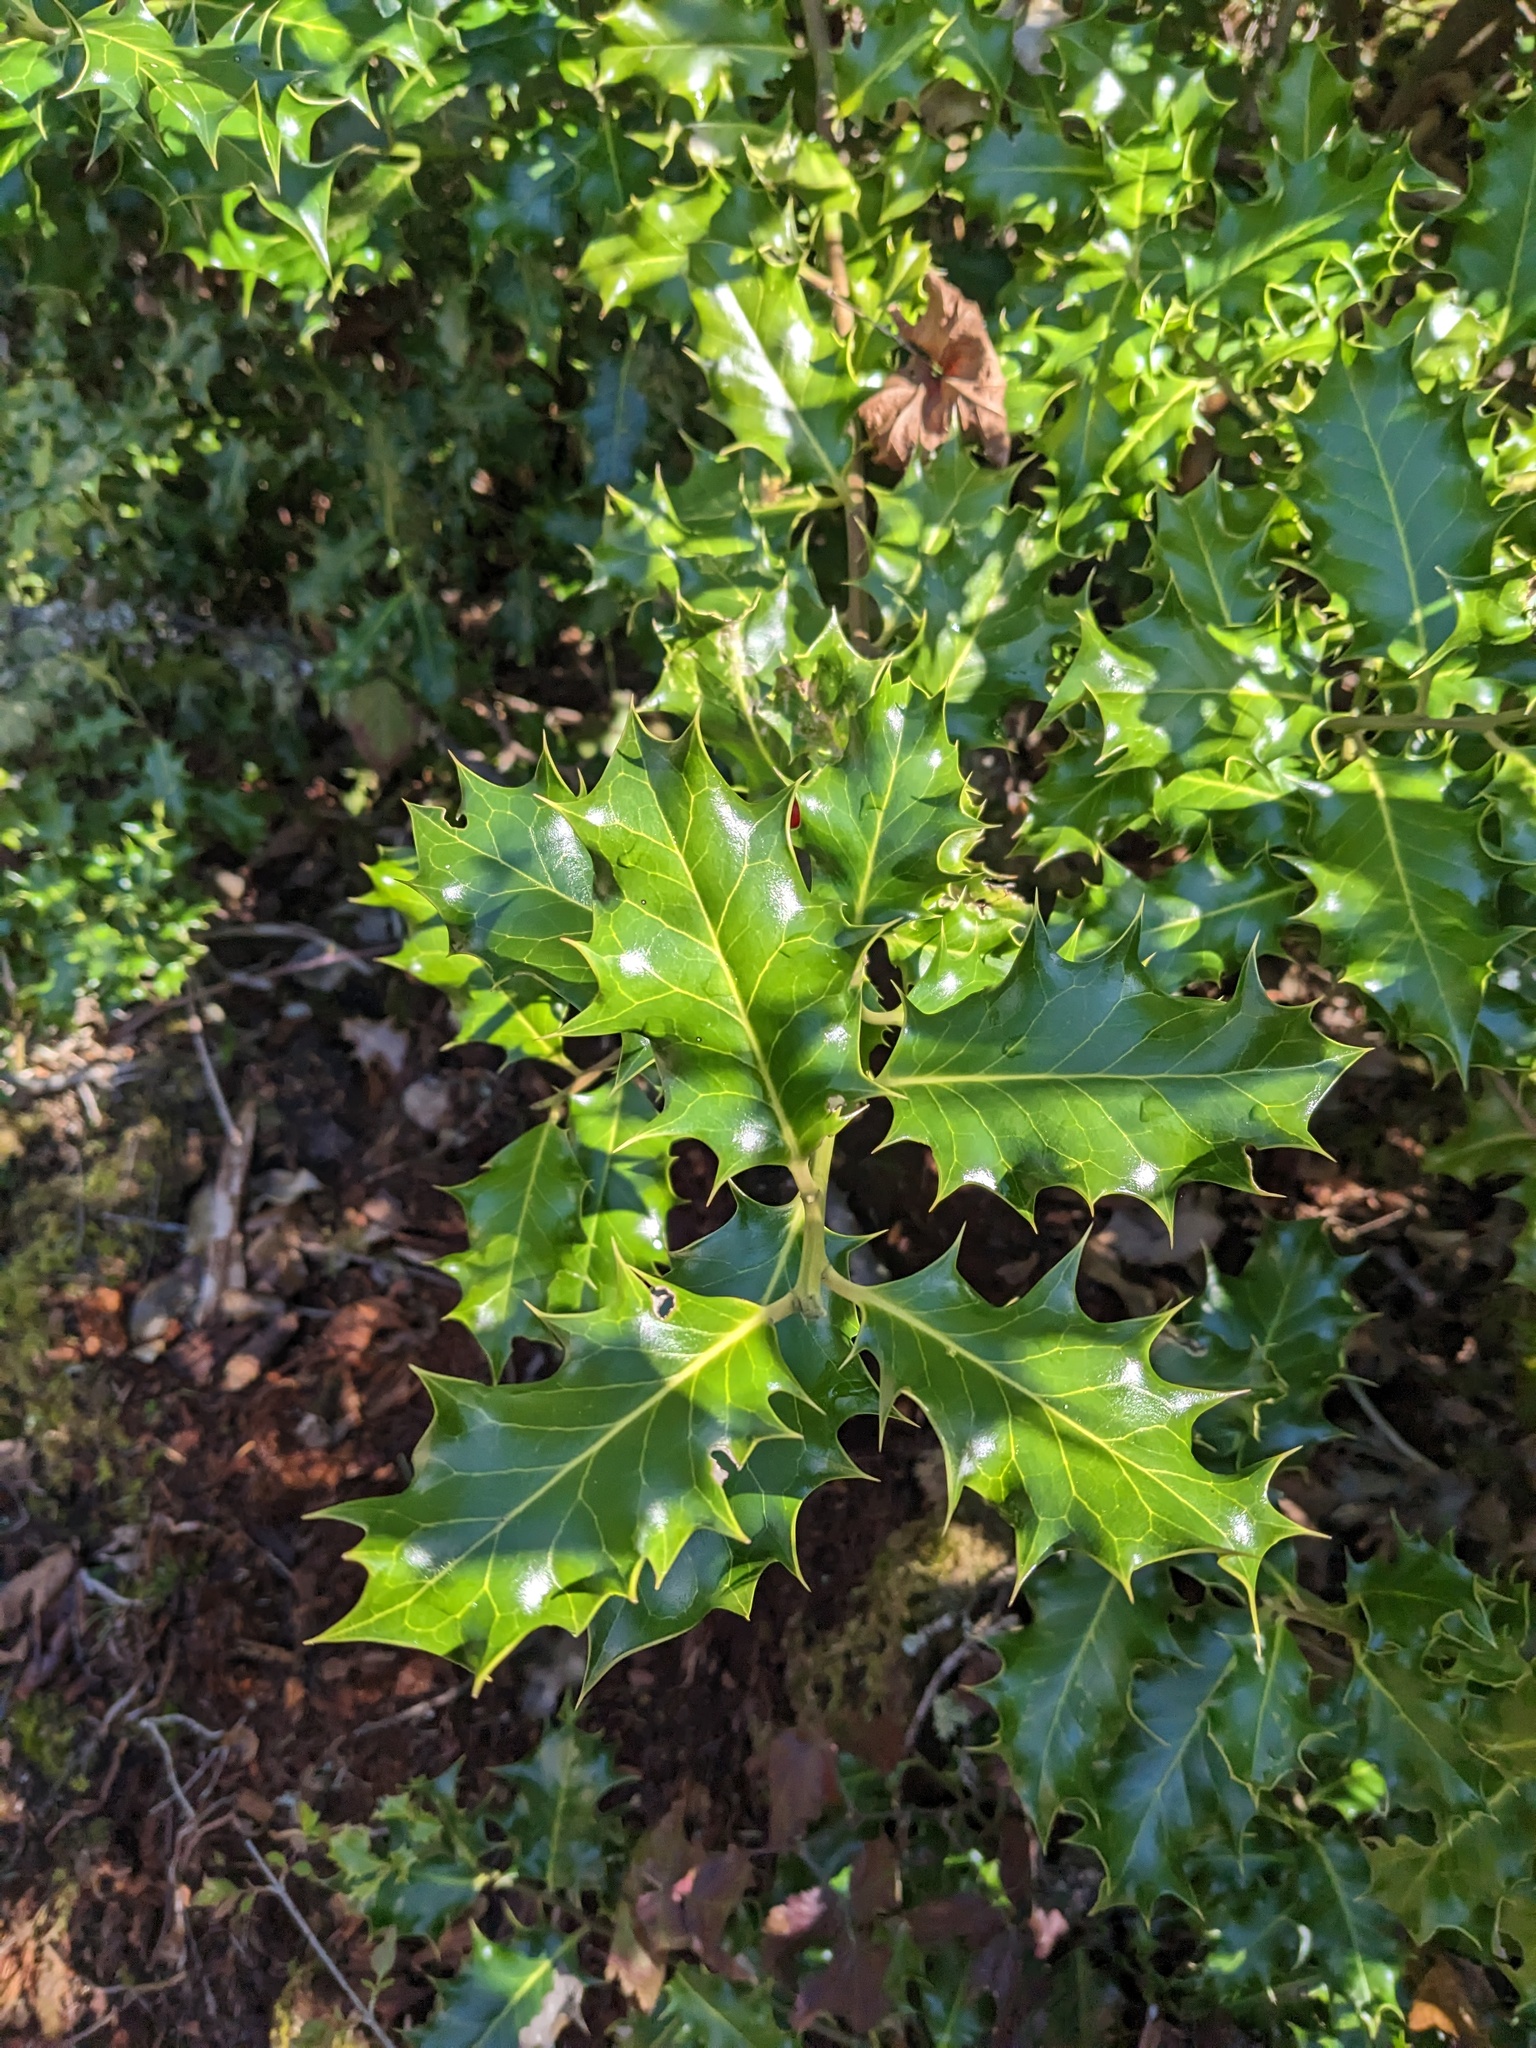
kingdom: Plantae
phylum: Tracheophyta
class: Magnoliopsida
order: Aquifoliales
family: Aquifoliaceae
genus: Ilex
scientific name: Ilex aquifolium
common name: English holly
